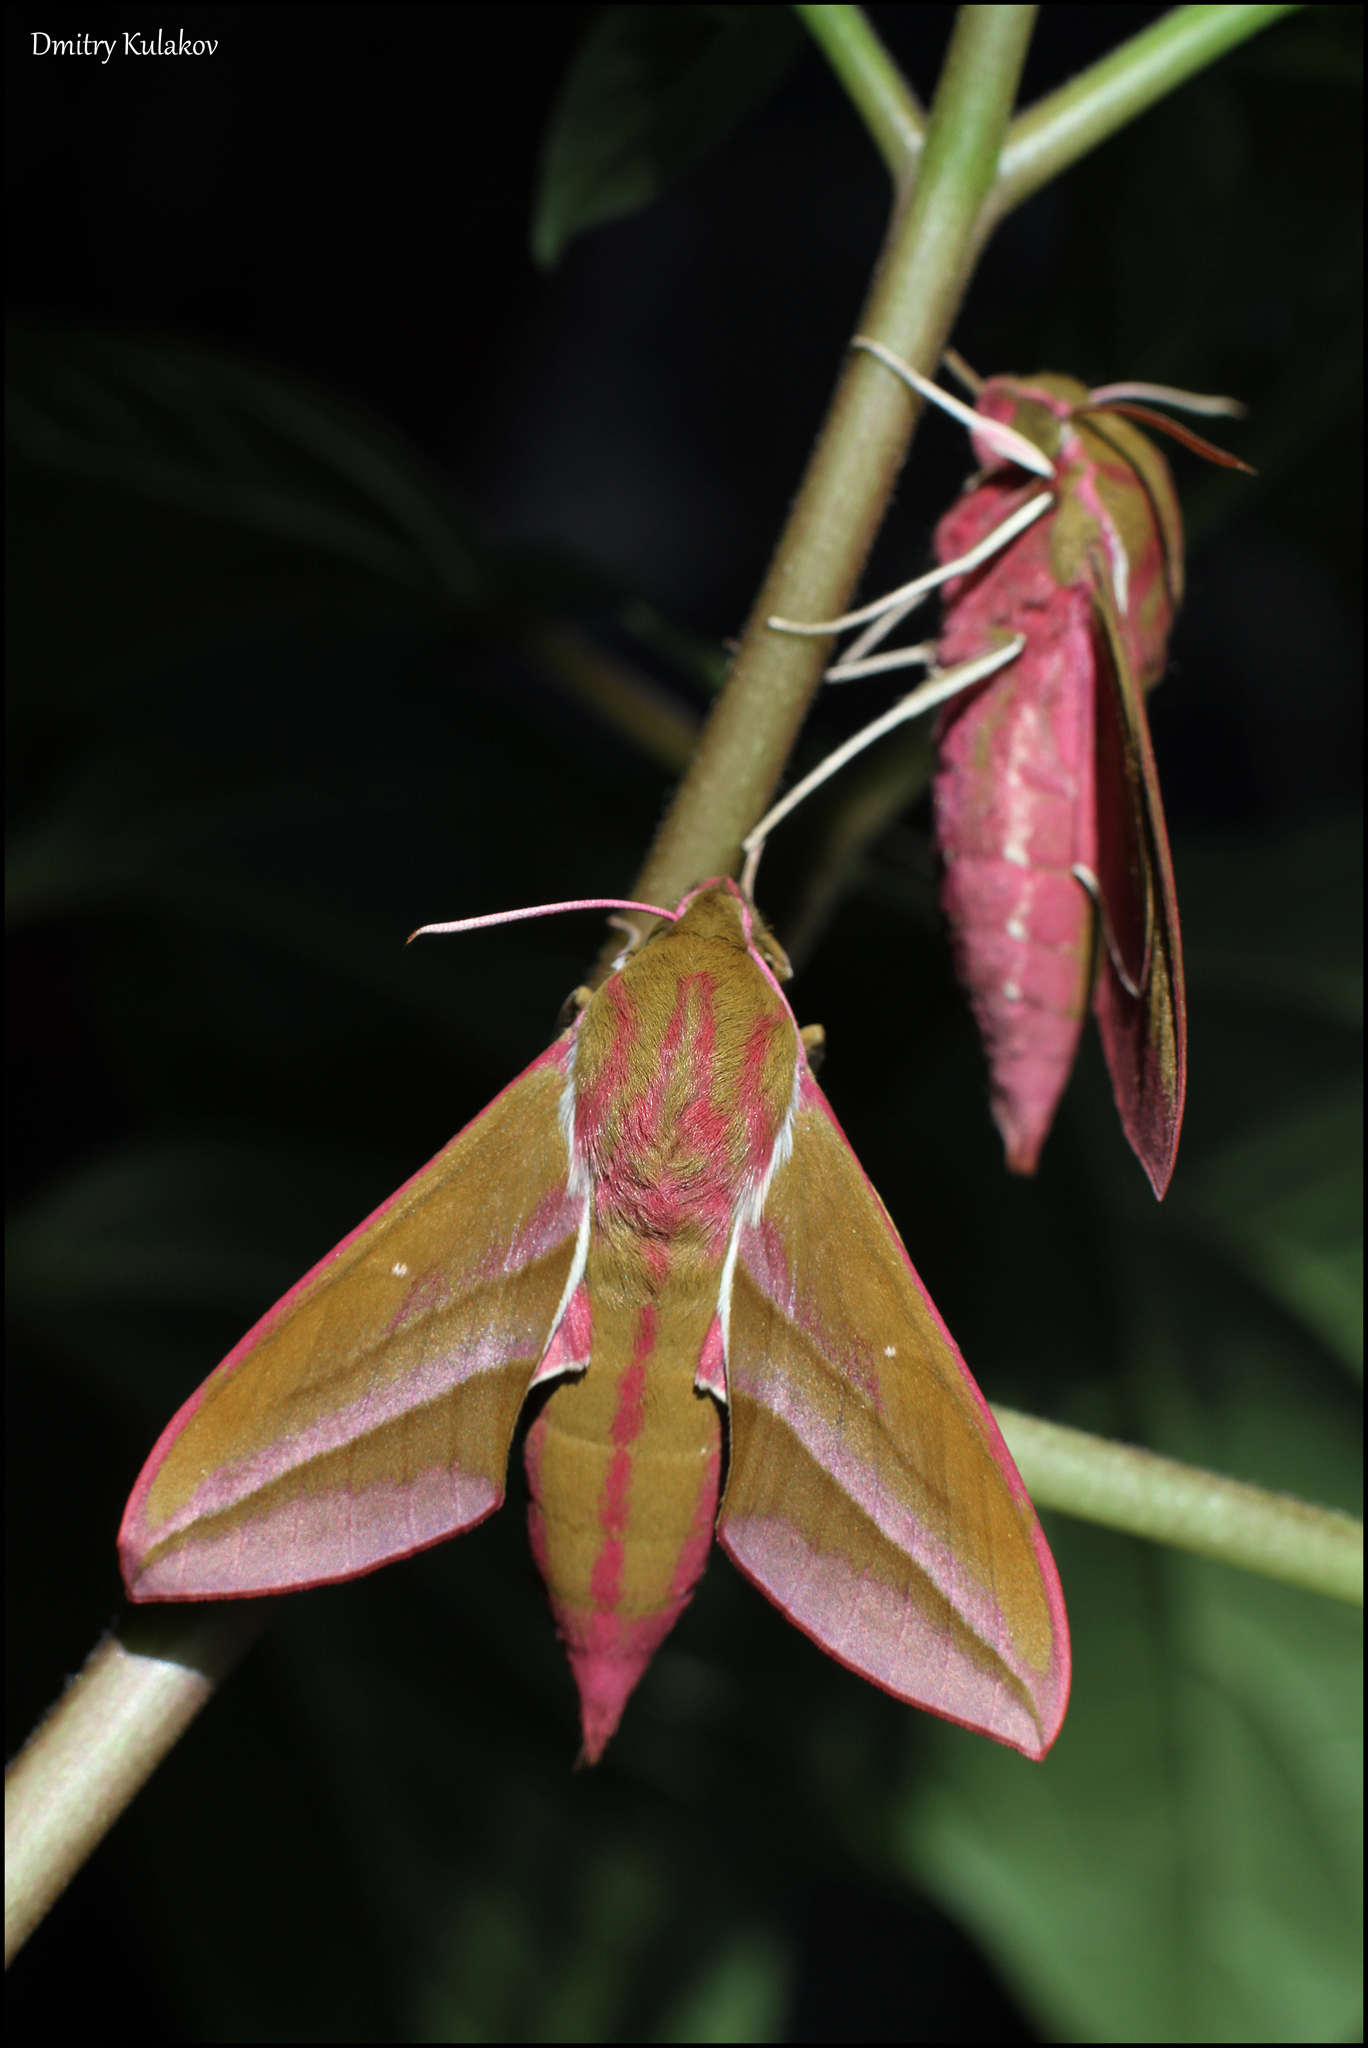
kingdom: Animalia
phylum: Arthropoda
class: Insecta
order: Lepidoptera
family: Sphingidae
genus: Deilephila
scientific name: Deilephila elpenor
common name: Elephant hawk-moth
